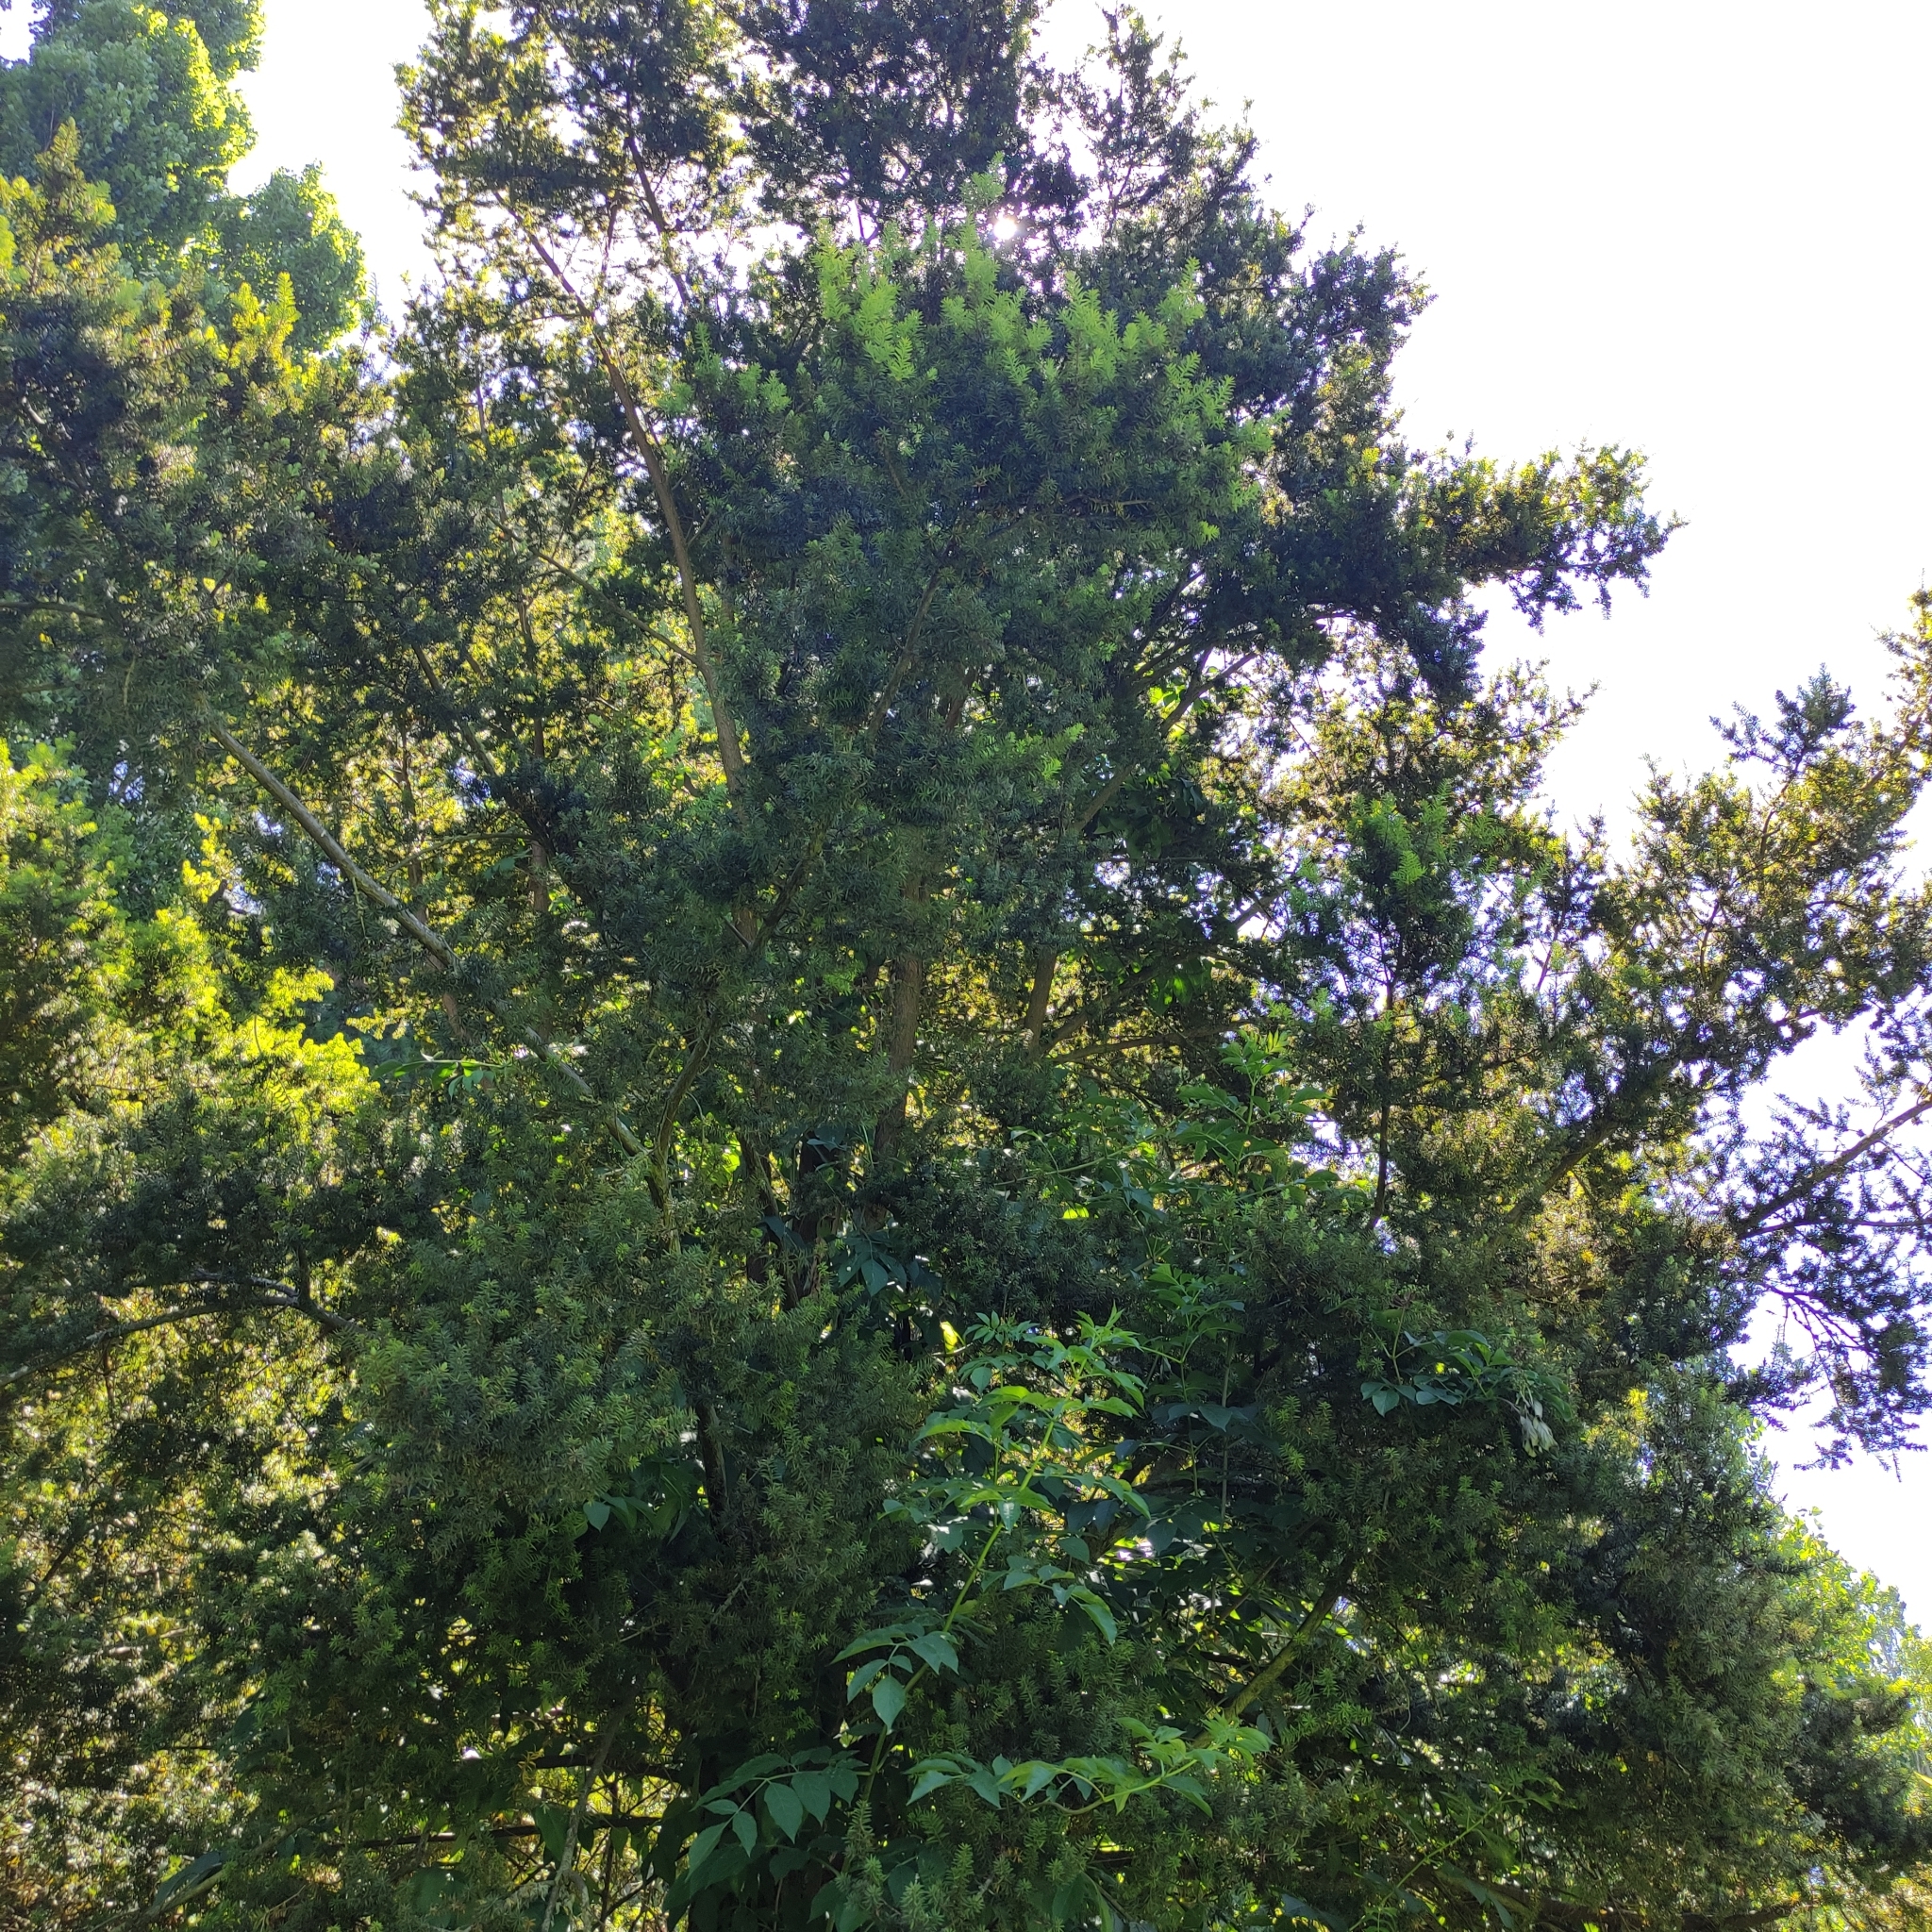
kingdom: Plantae
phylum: Tracheophyta
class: Pinopsida
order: Pinales
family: Podocarpaceae
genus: Podocarpus
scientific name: Podocarpus totara
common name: Totara
